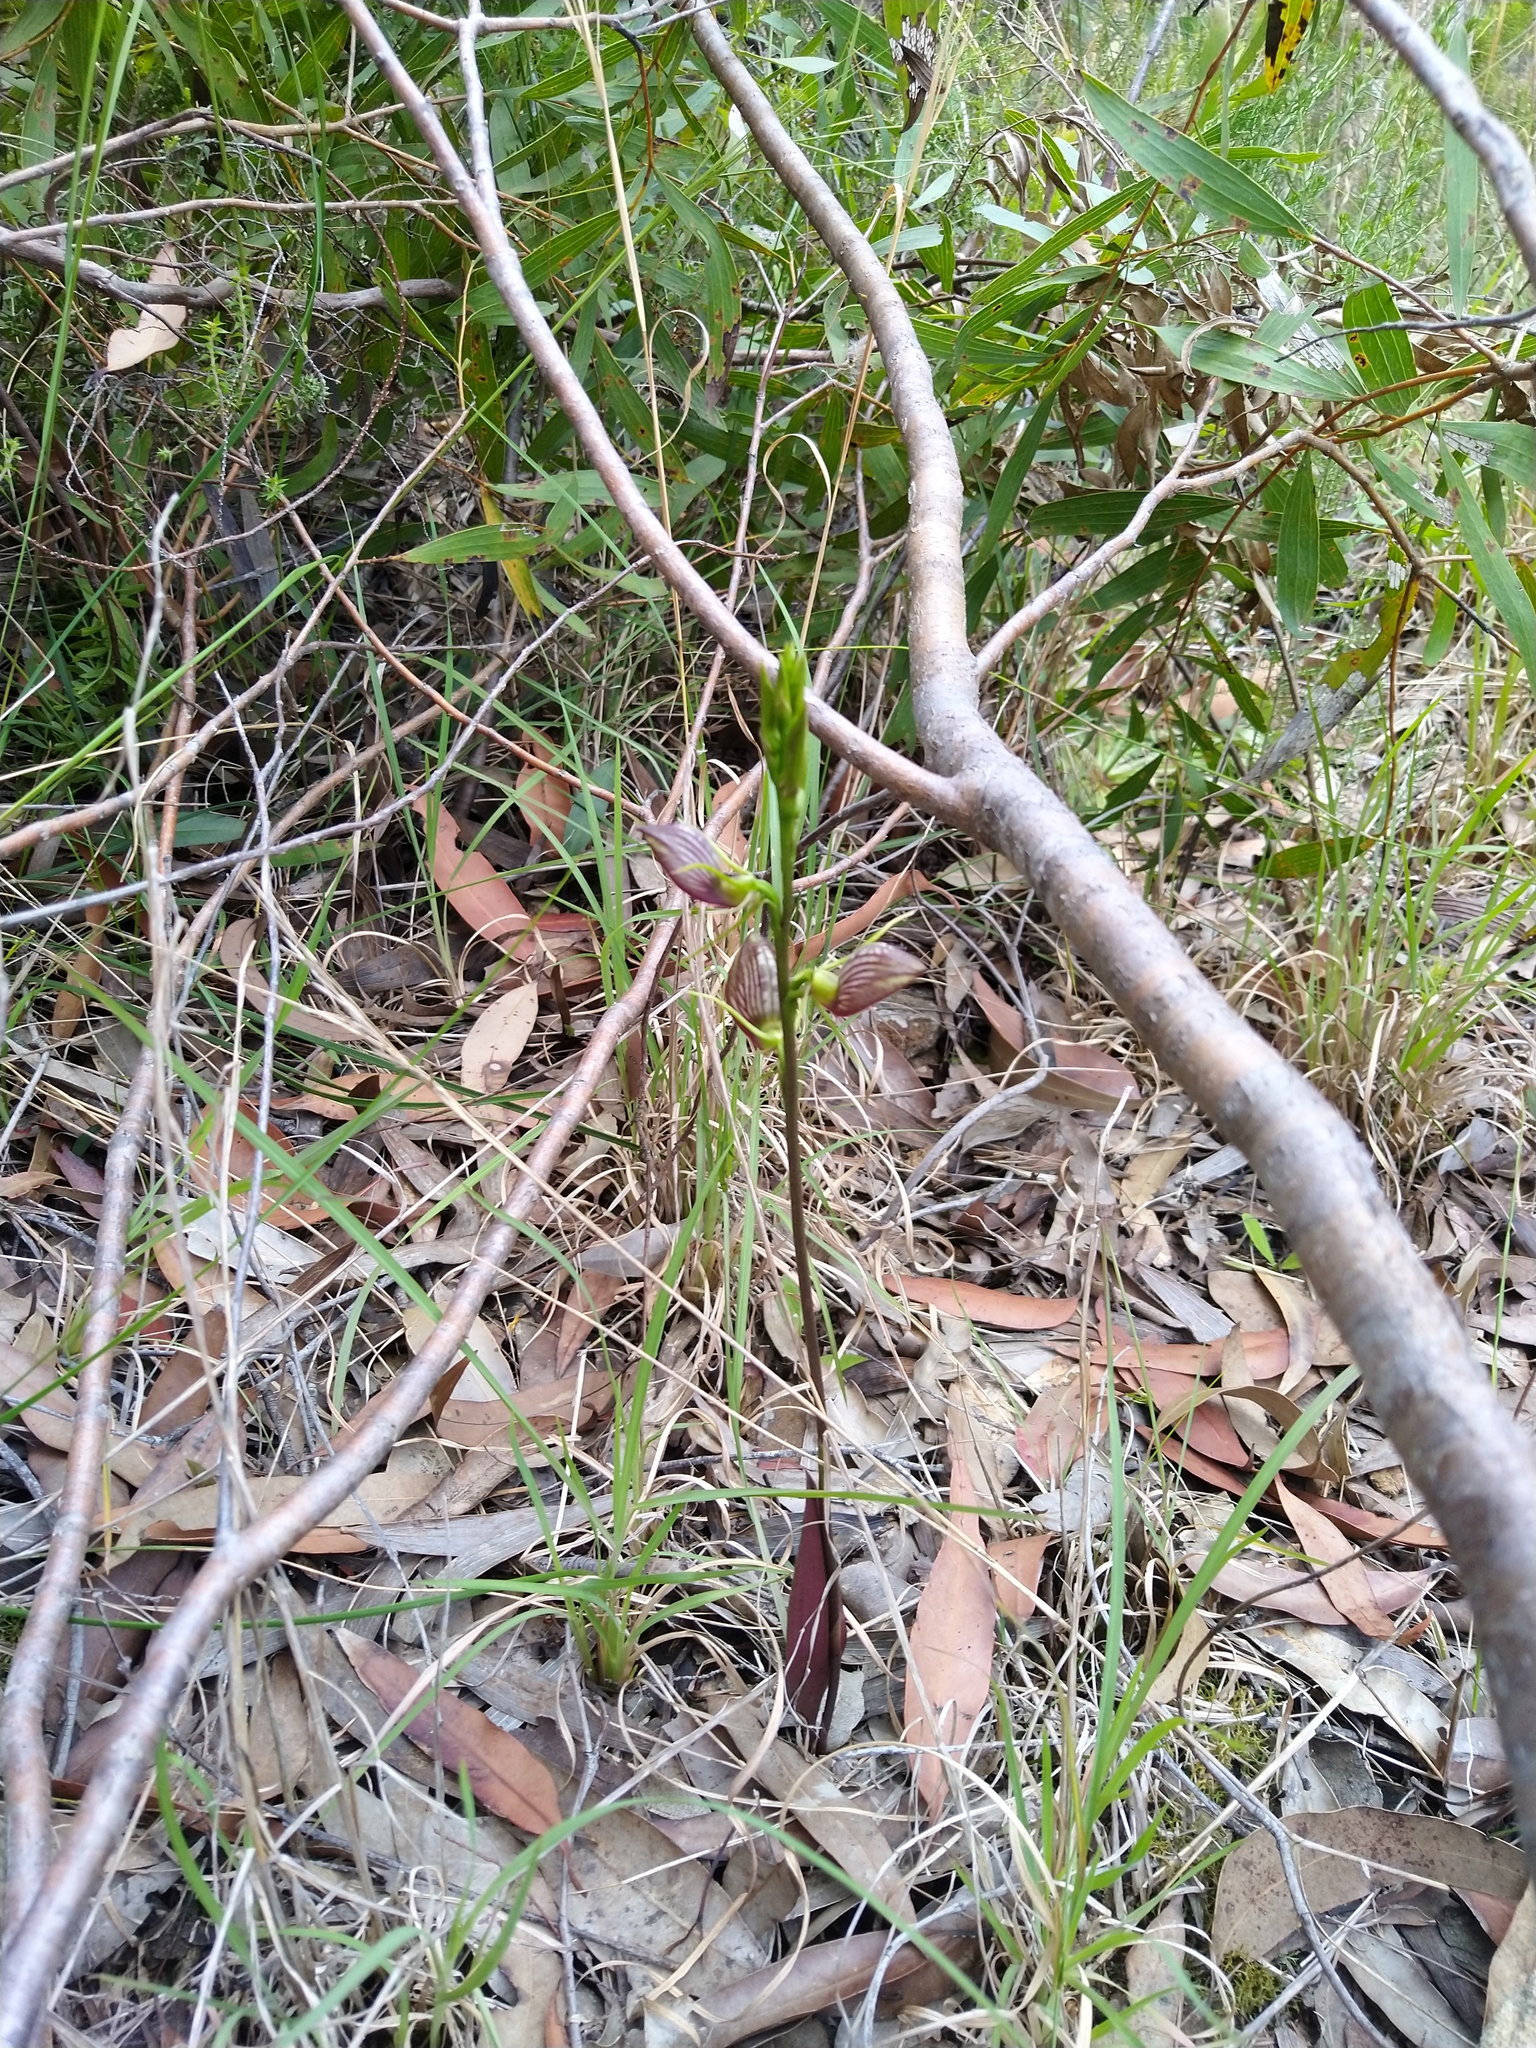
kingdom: Plantae
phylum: Tracheophyta
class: Liliopsida
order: Asparagales
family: Orchidaceae
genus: Cryptostylis
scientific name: Cryptostylis erecta
